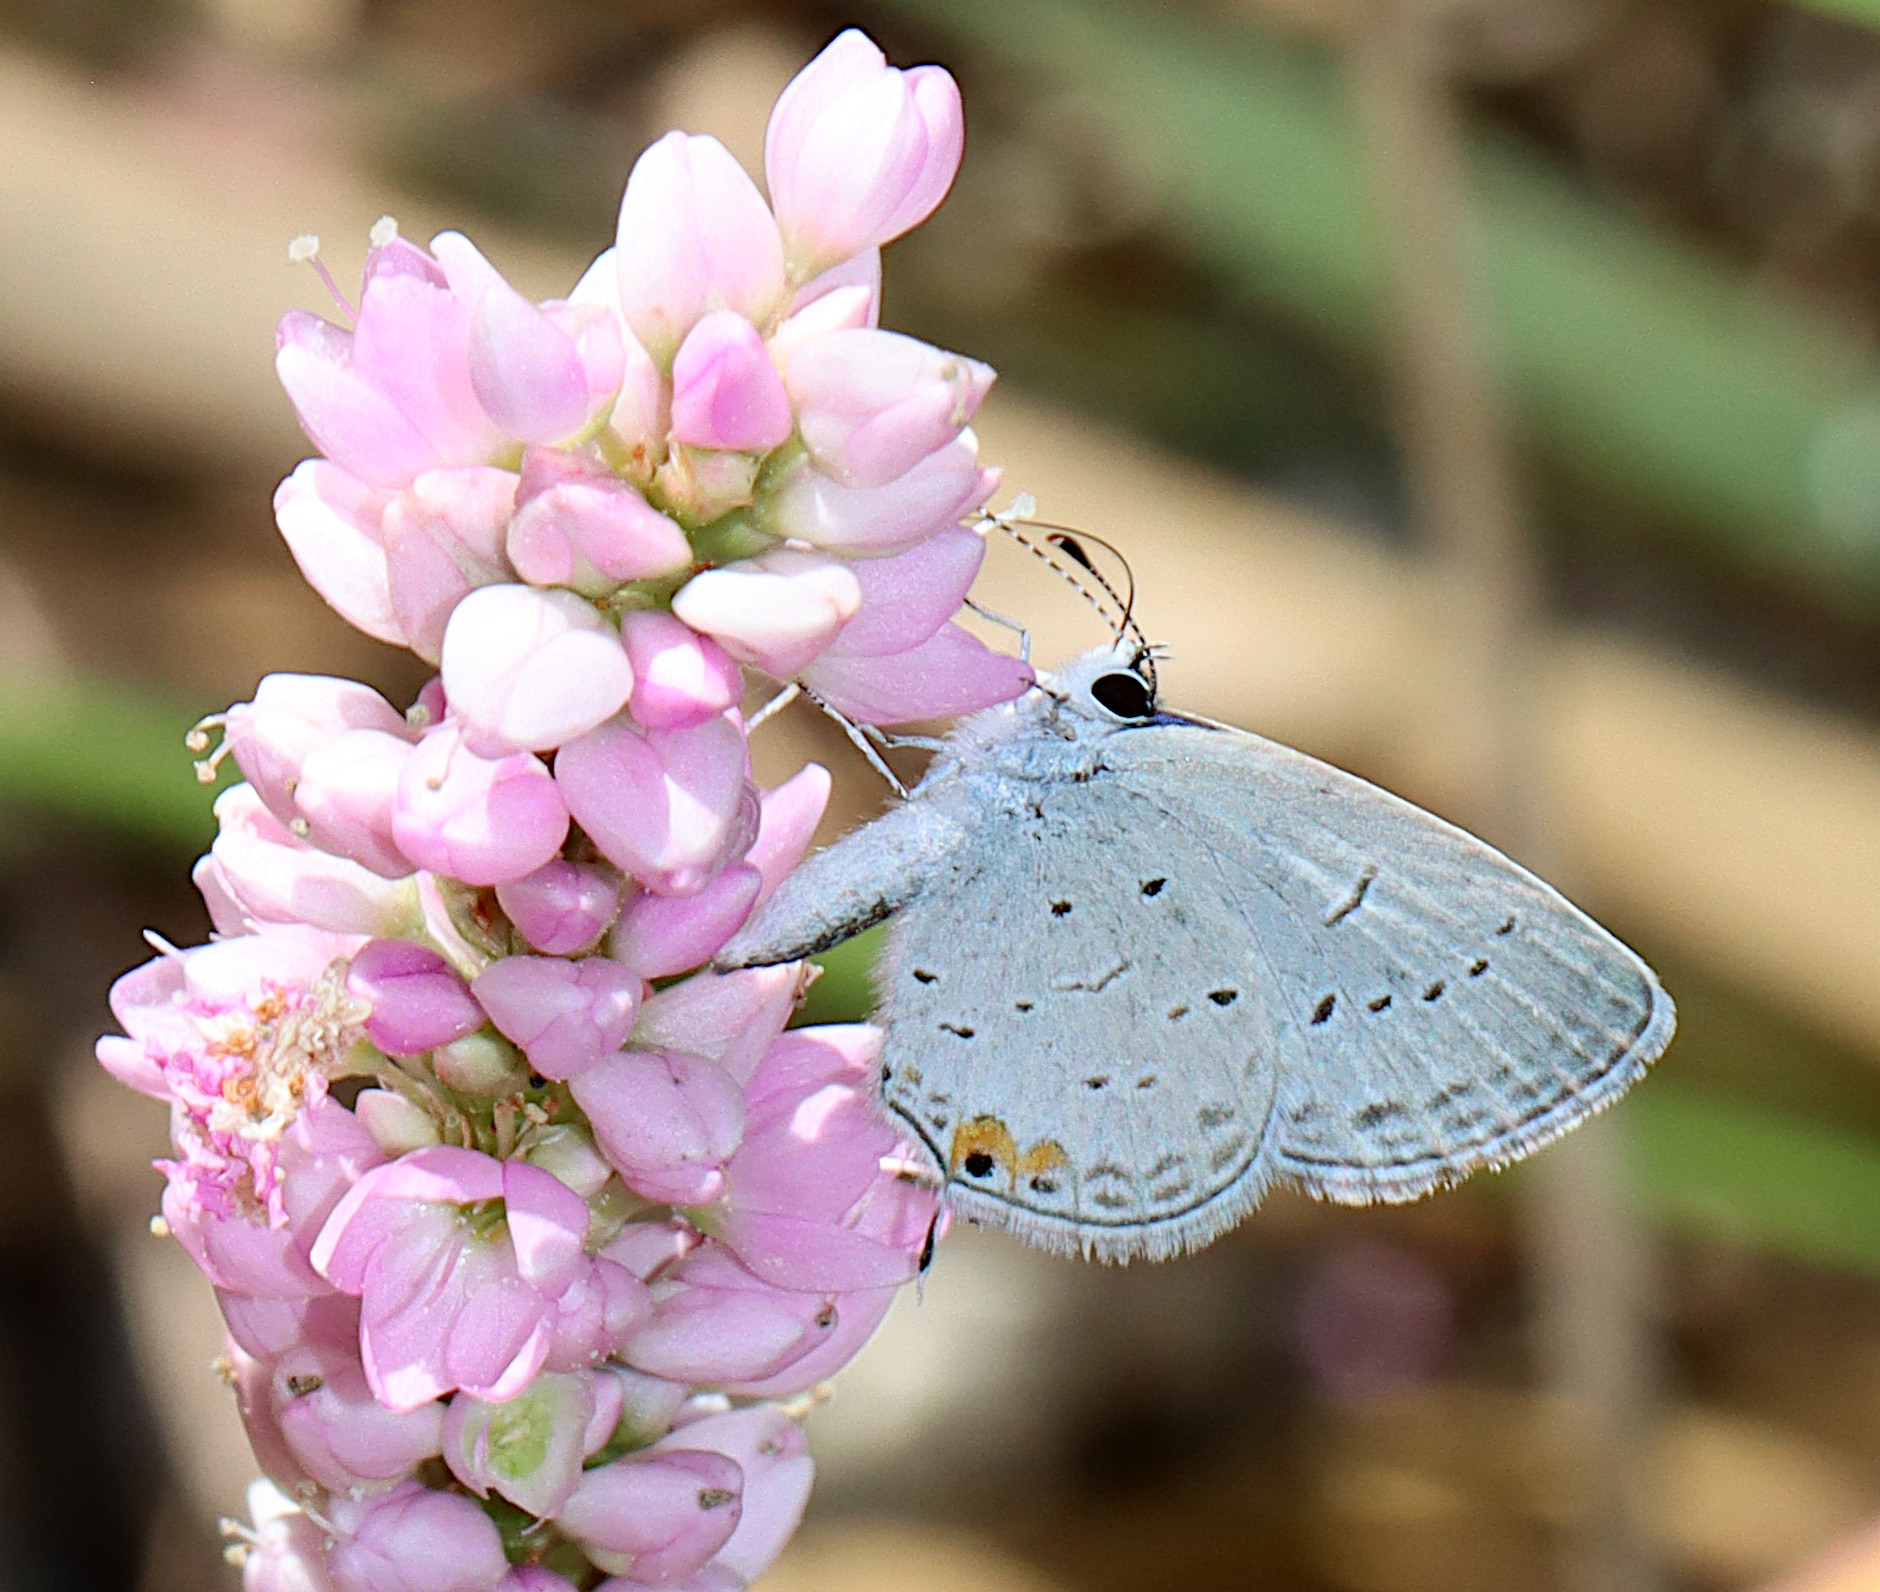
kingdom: Animalia
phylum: Arthropoda
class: Insecta
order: Lepidoptera
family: Lycaenidae
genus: Elkalyce
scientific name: Elkalyce comyntas
